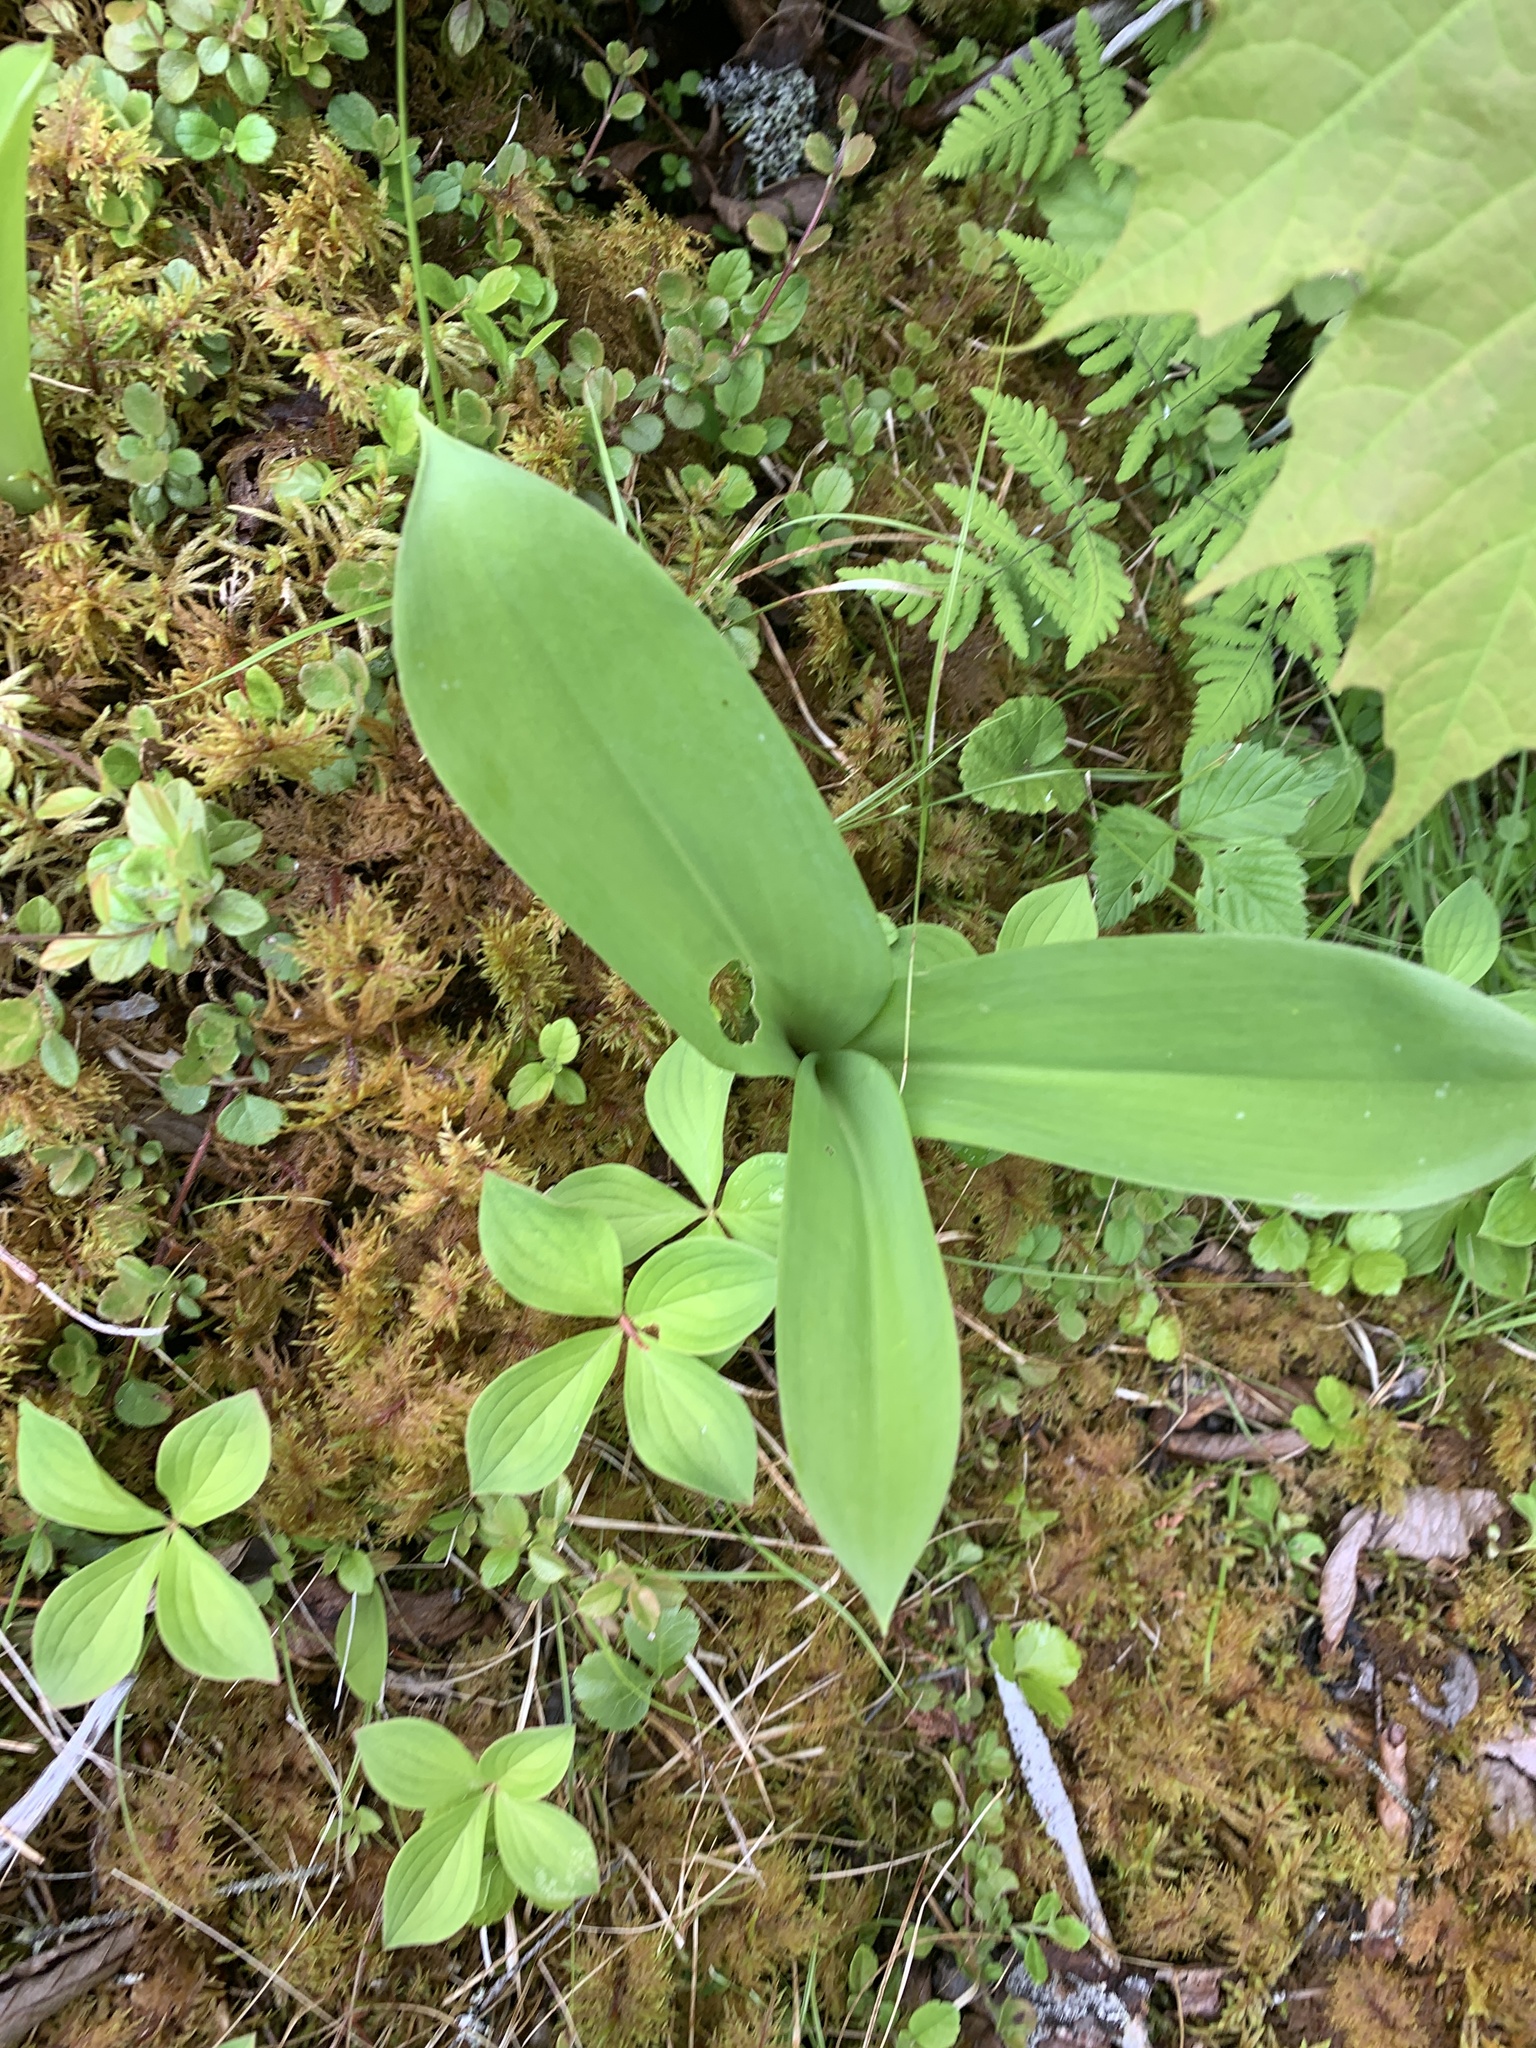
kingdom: Plantae
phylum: Tracheophyta
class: Liliopsida
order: Liliales
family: Liliaceae
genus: Clintonia
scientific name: Clintonia borealis
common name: Yellow clintonia
